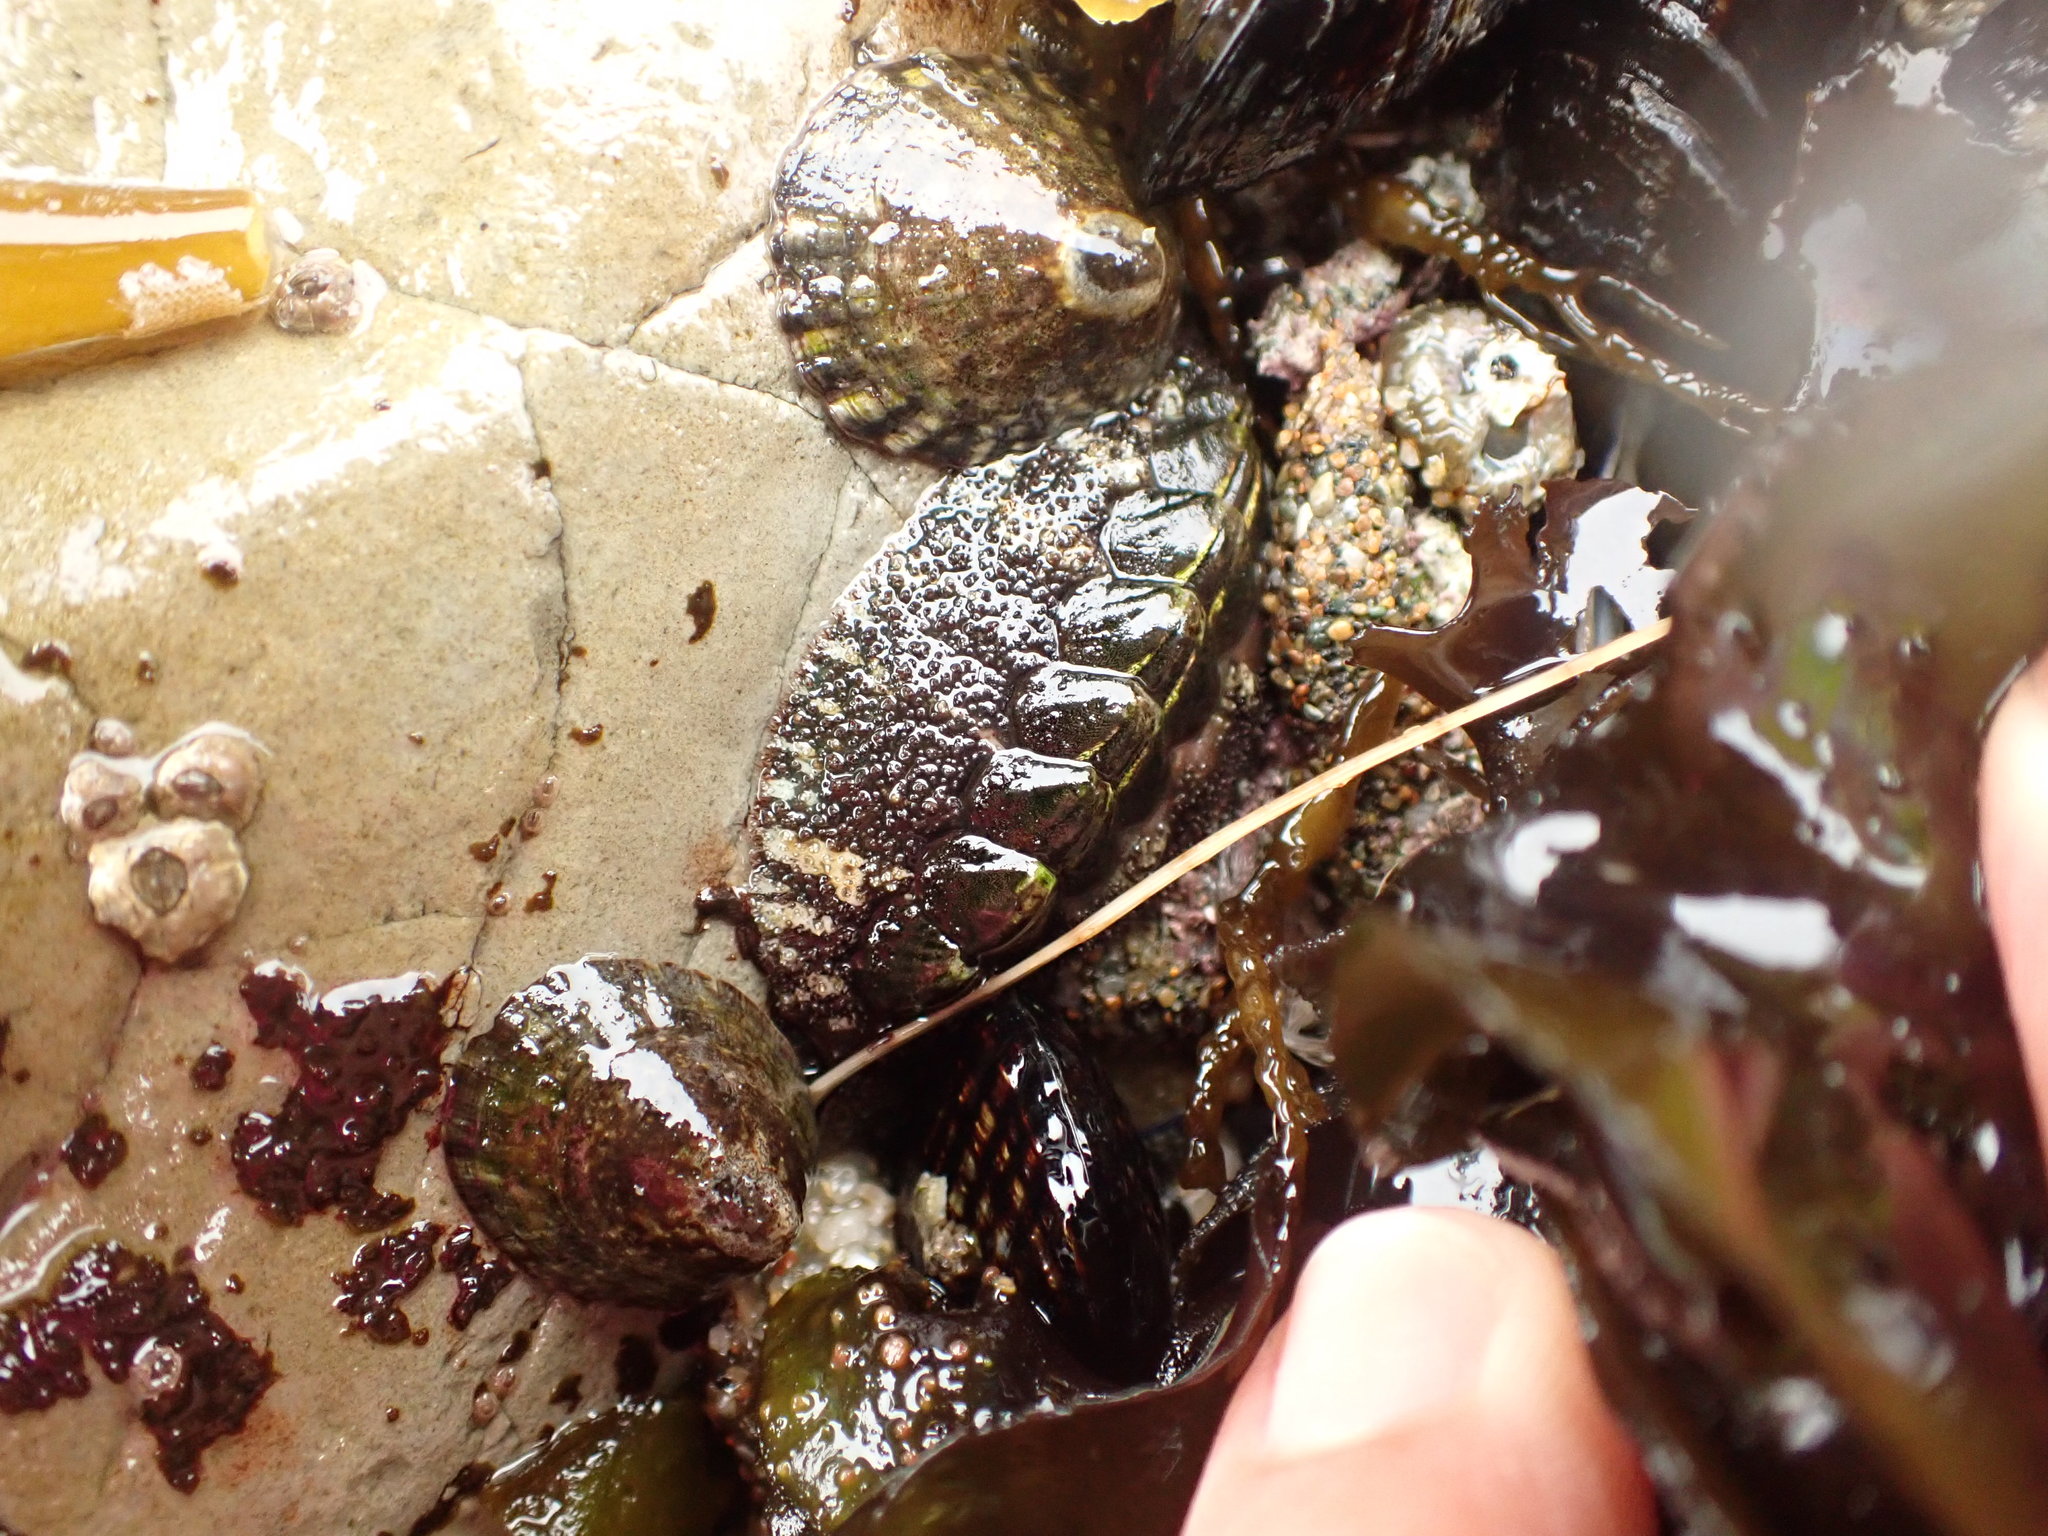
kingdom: Animalia
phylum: Mollusca
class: Polyplacophora
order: Chitonida
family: Tonicellidae
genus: Nuttallina
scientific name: Nuttallina californica
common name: California nuttall chiton
